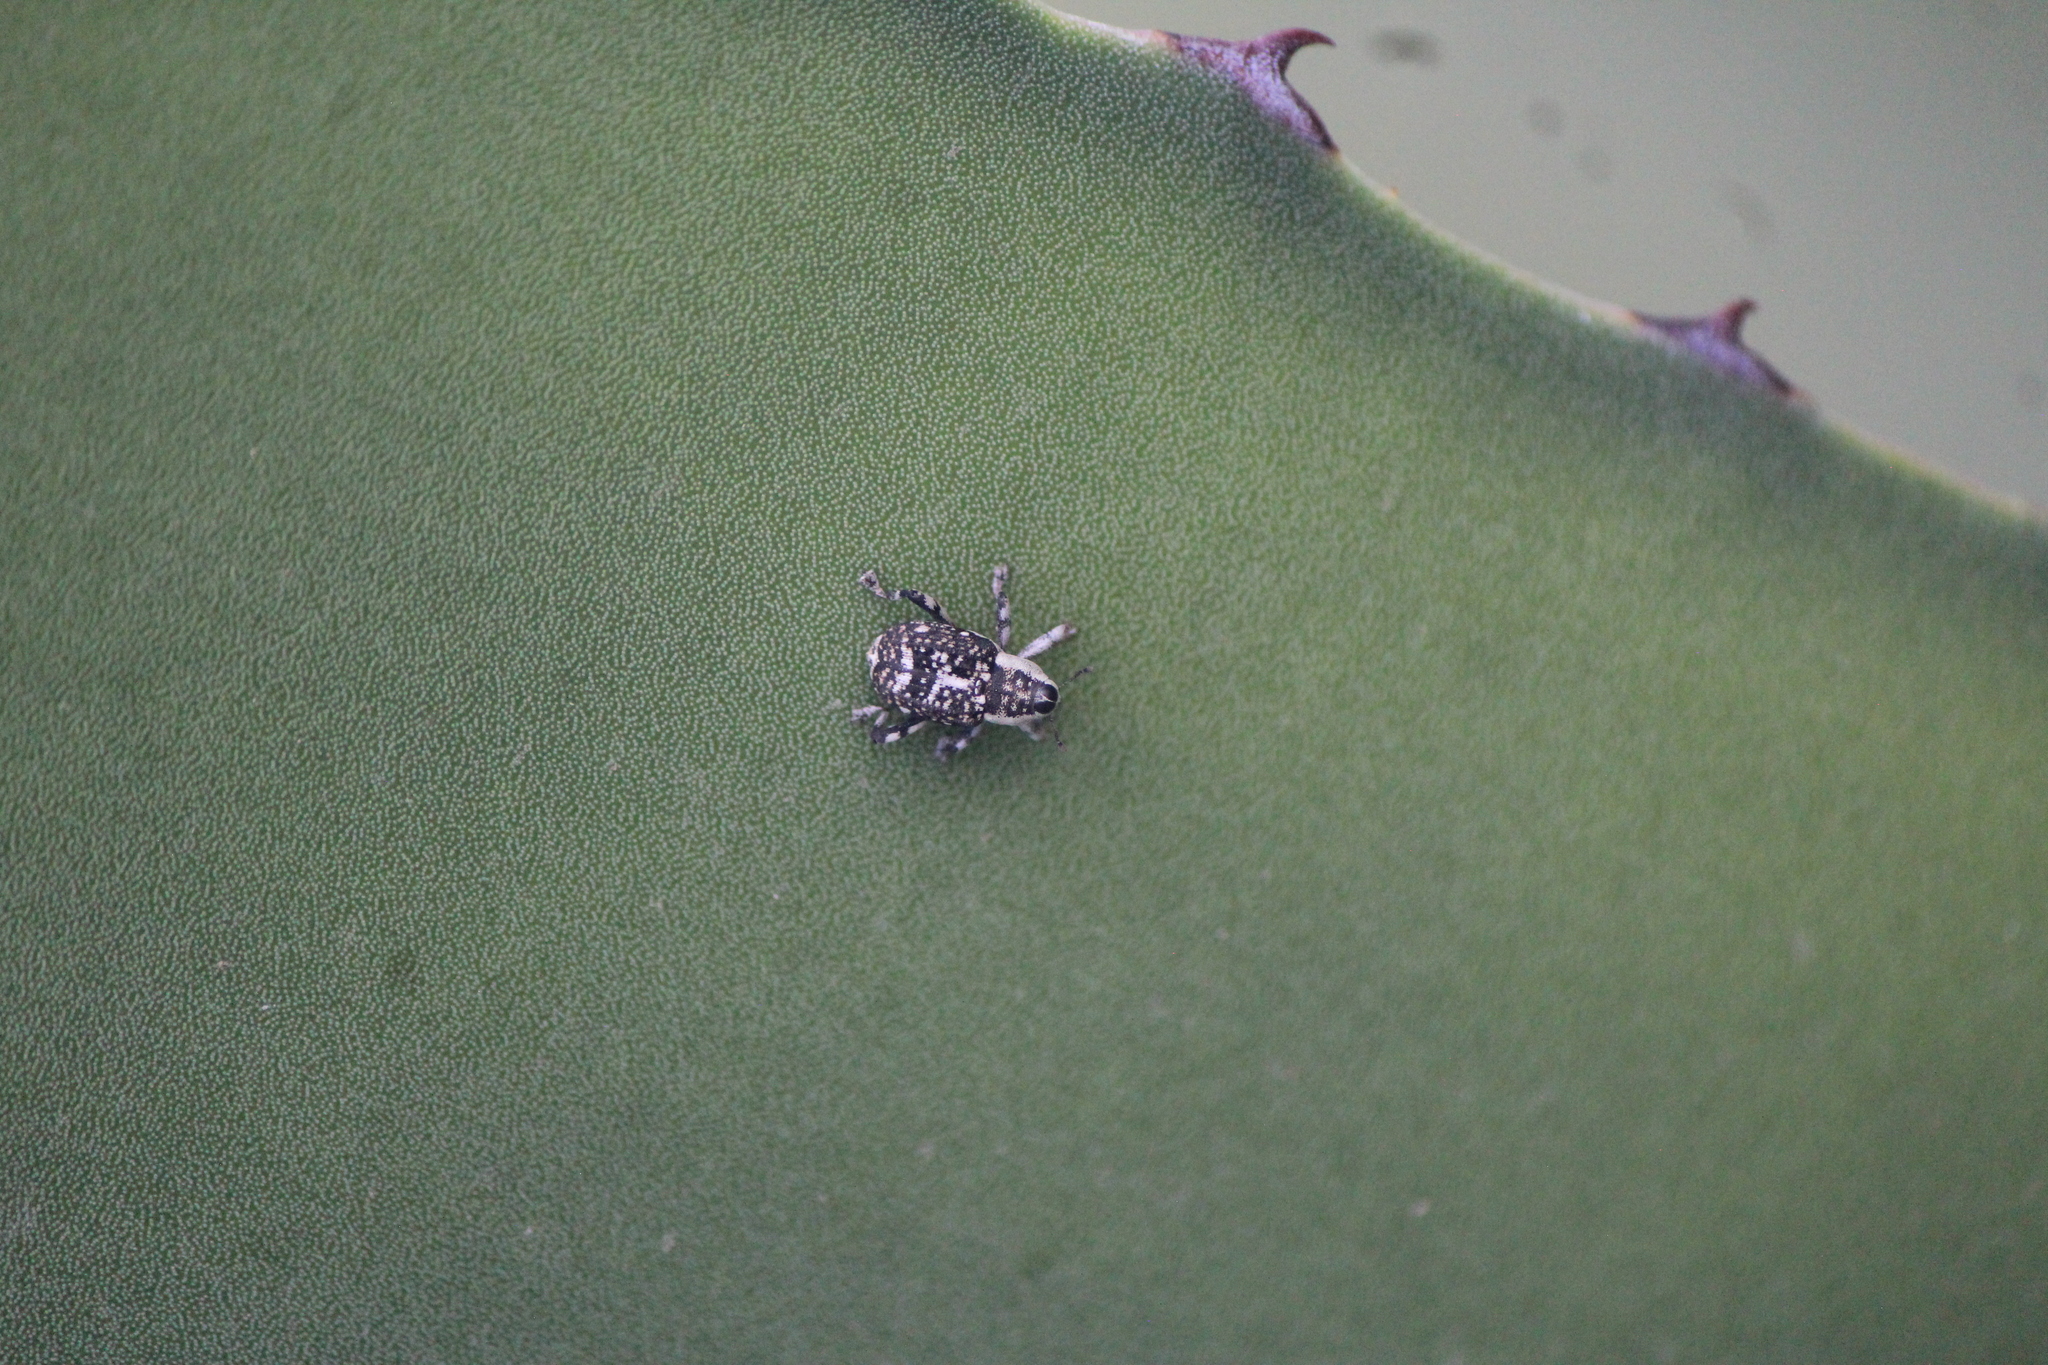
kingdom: Animalia
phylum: Arthropoda
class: Insecta
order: Coleoptera
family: Curculionidae
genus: Peltophorus
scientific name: Peltophorus polymitus
